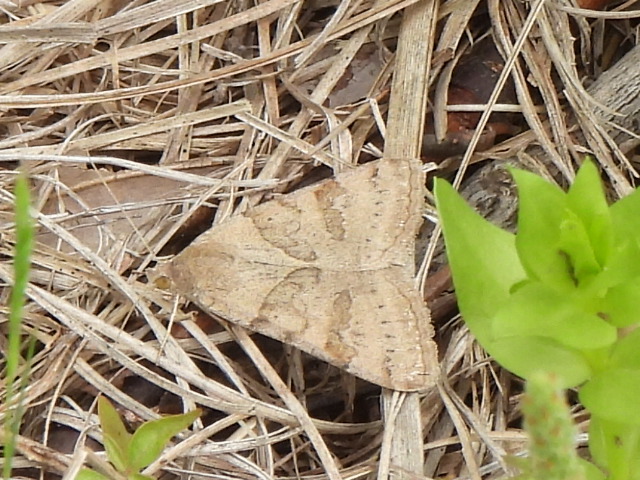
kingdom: Animalia
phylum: Arthropoda
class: Insecta
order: Lepidoptera
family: Erebidae
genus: Caenurgina
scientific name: Caenurgina erechtea
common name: Forage looper moth
